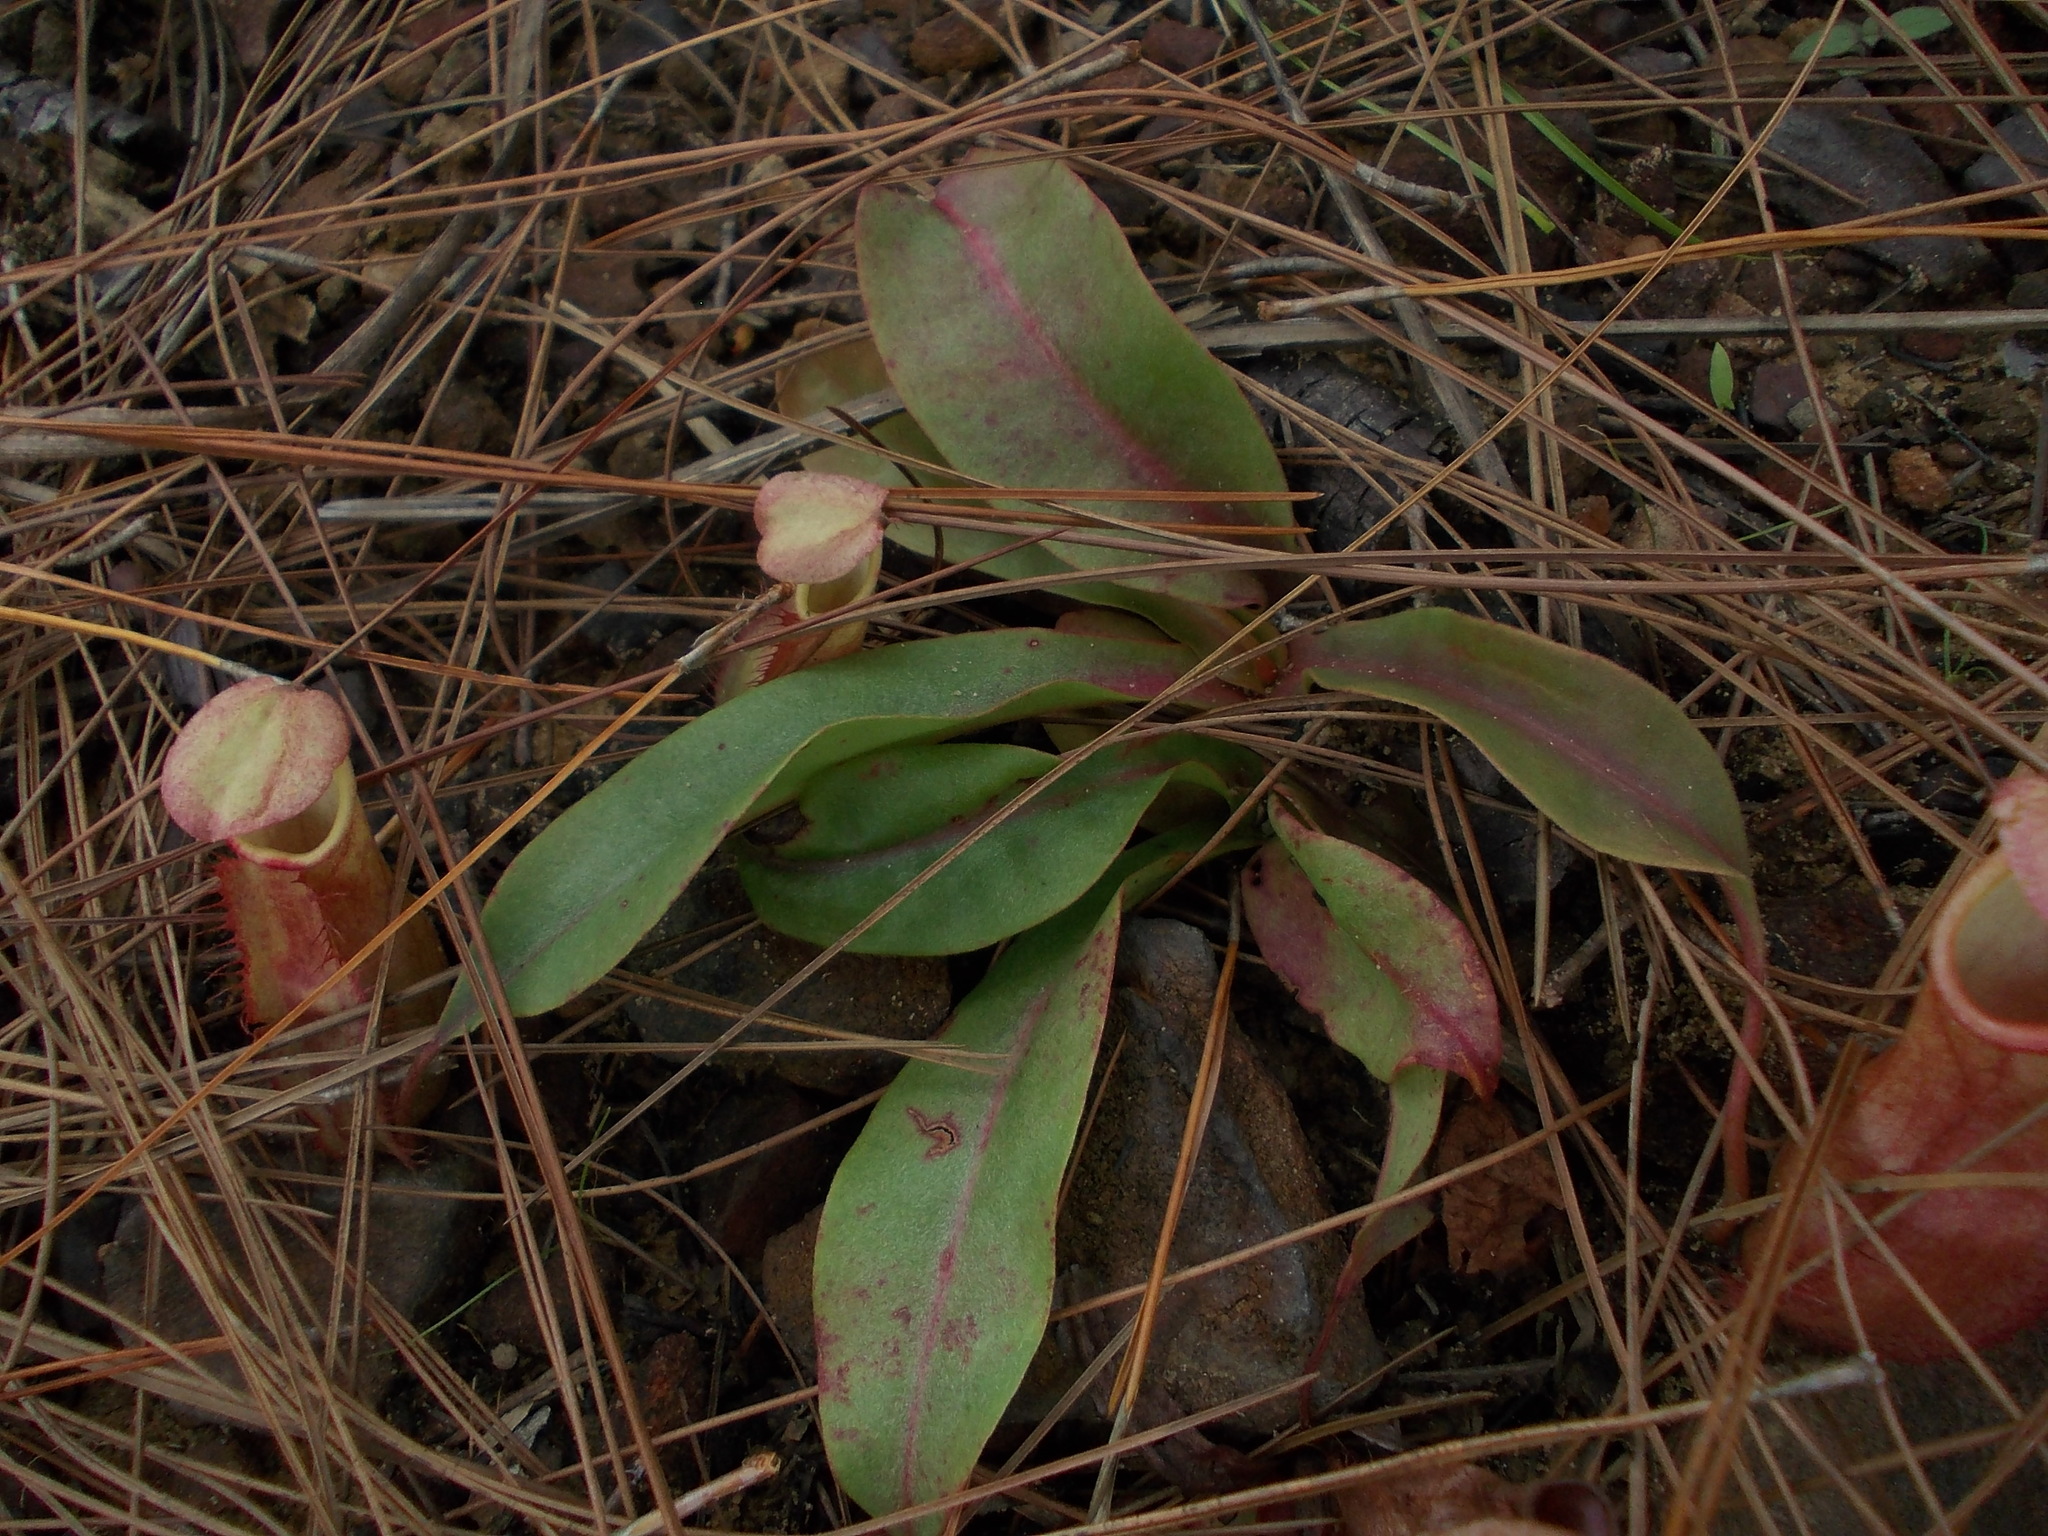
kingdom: Plantae
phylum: Tracheophyta
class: Magnoliopsida
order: Caryophyllales
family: Nepenthaceae
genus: Nepenthes
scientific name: Nepenthes smilesii
